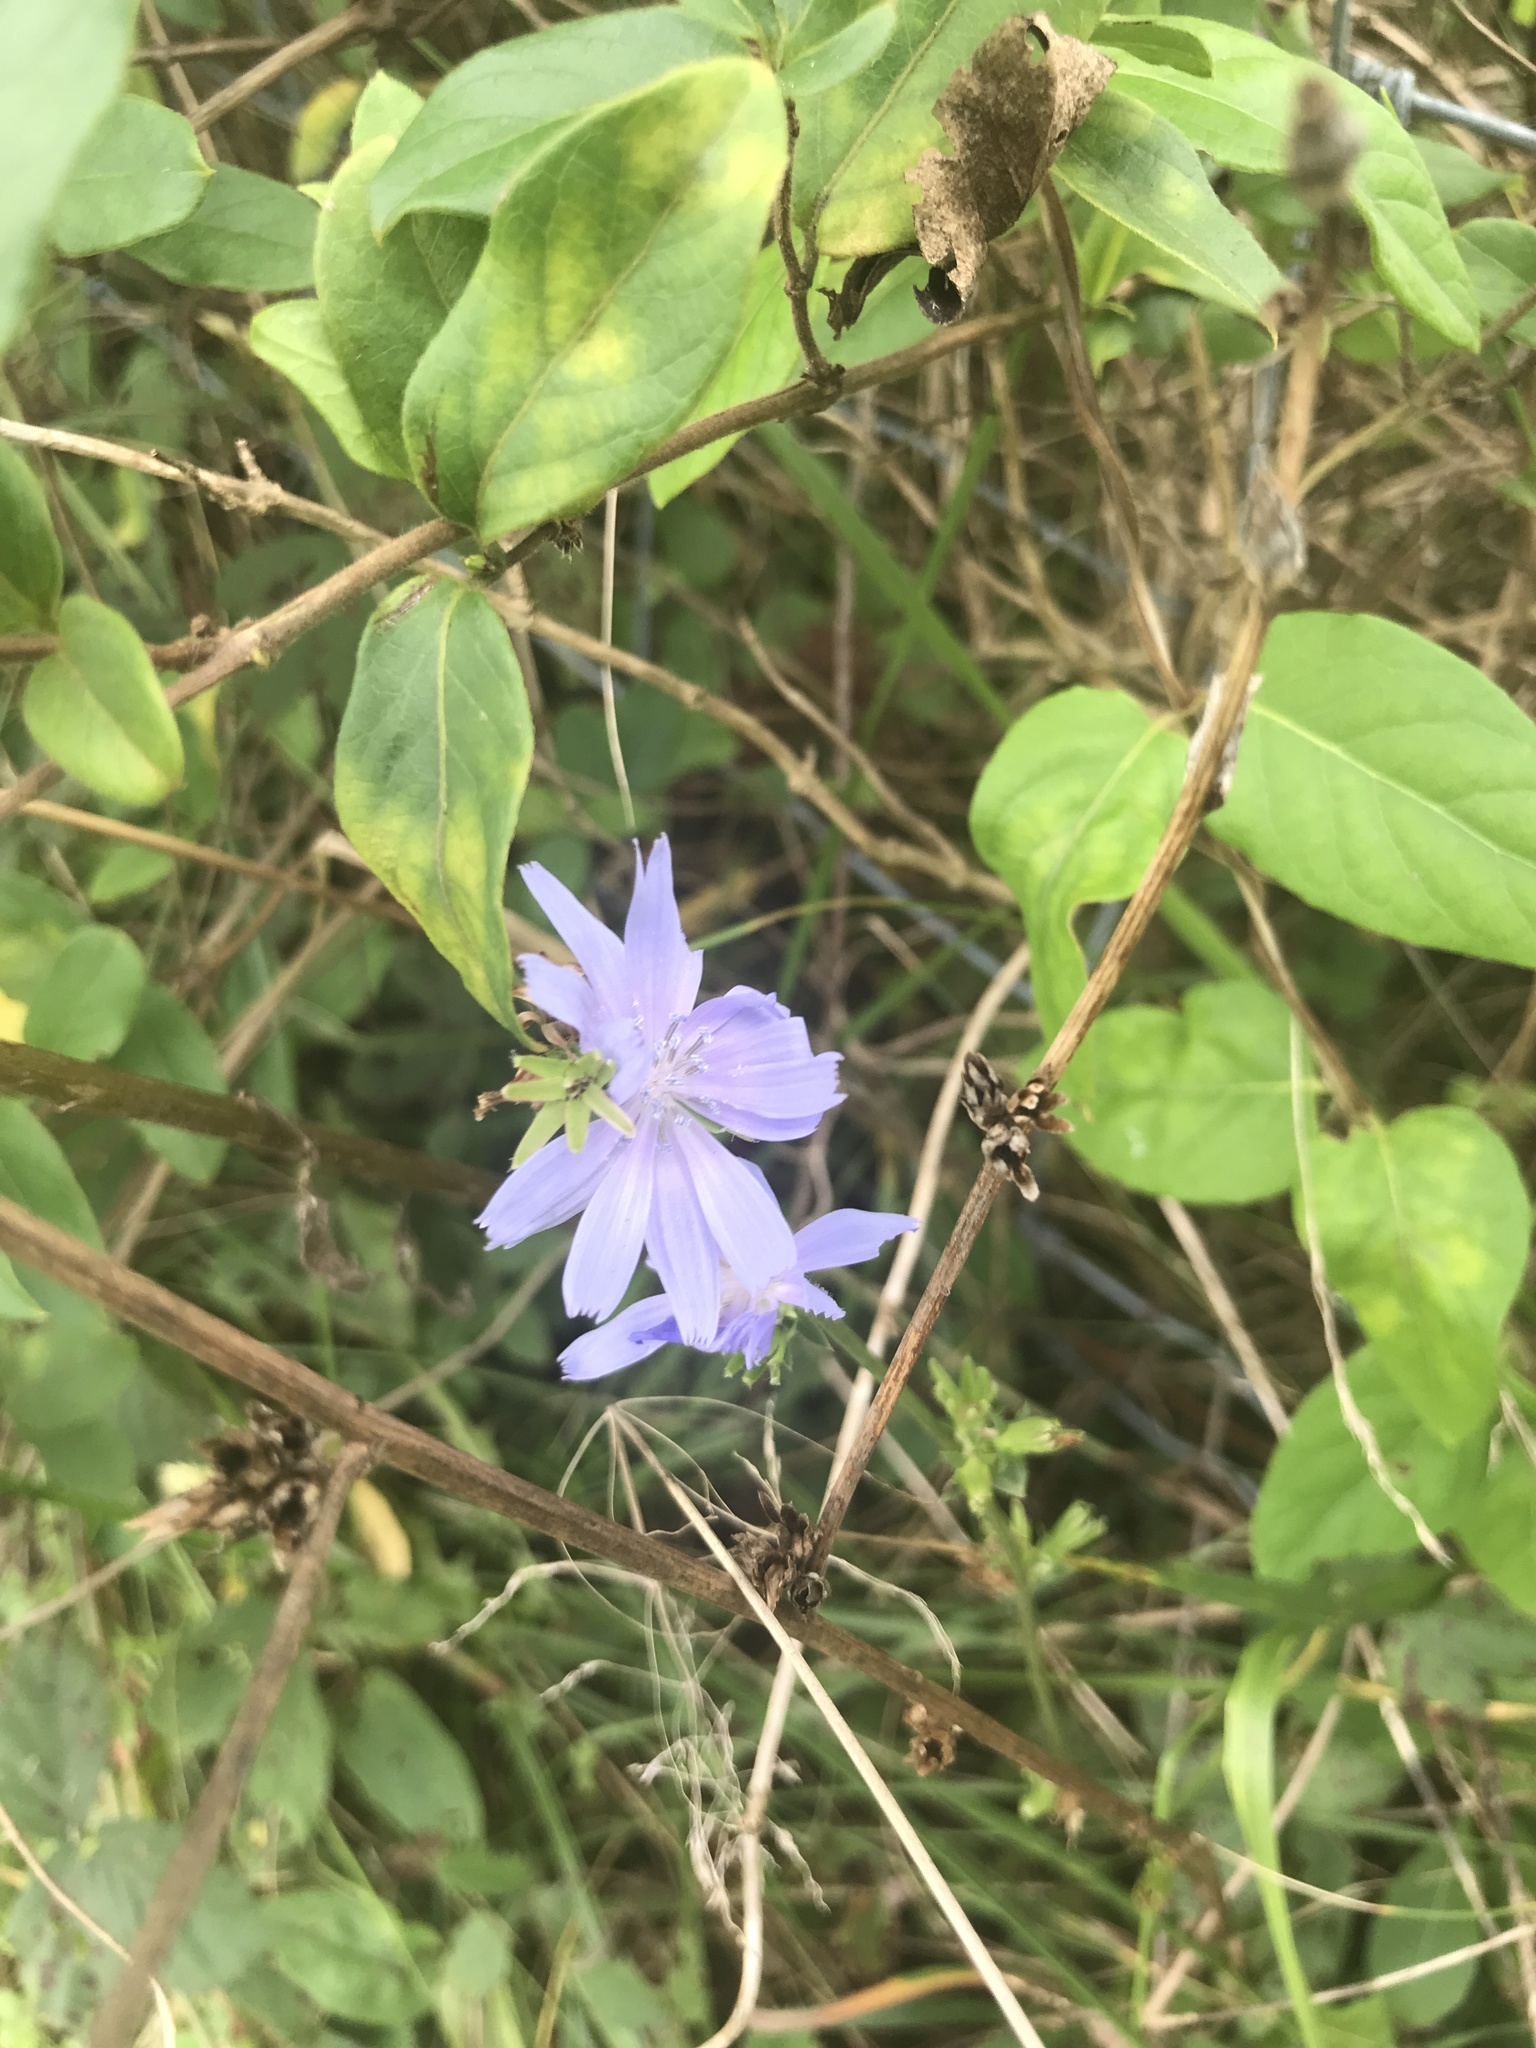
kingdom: Plantae
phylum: Tracheophyta
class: Magnoliopsida
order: Asterales
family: Asteraceae
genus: Cichorium
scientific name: Cichorium intybus
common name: Chicory
